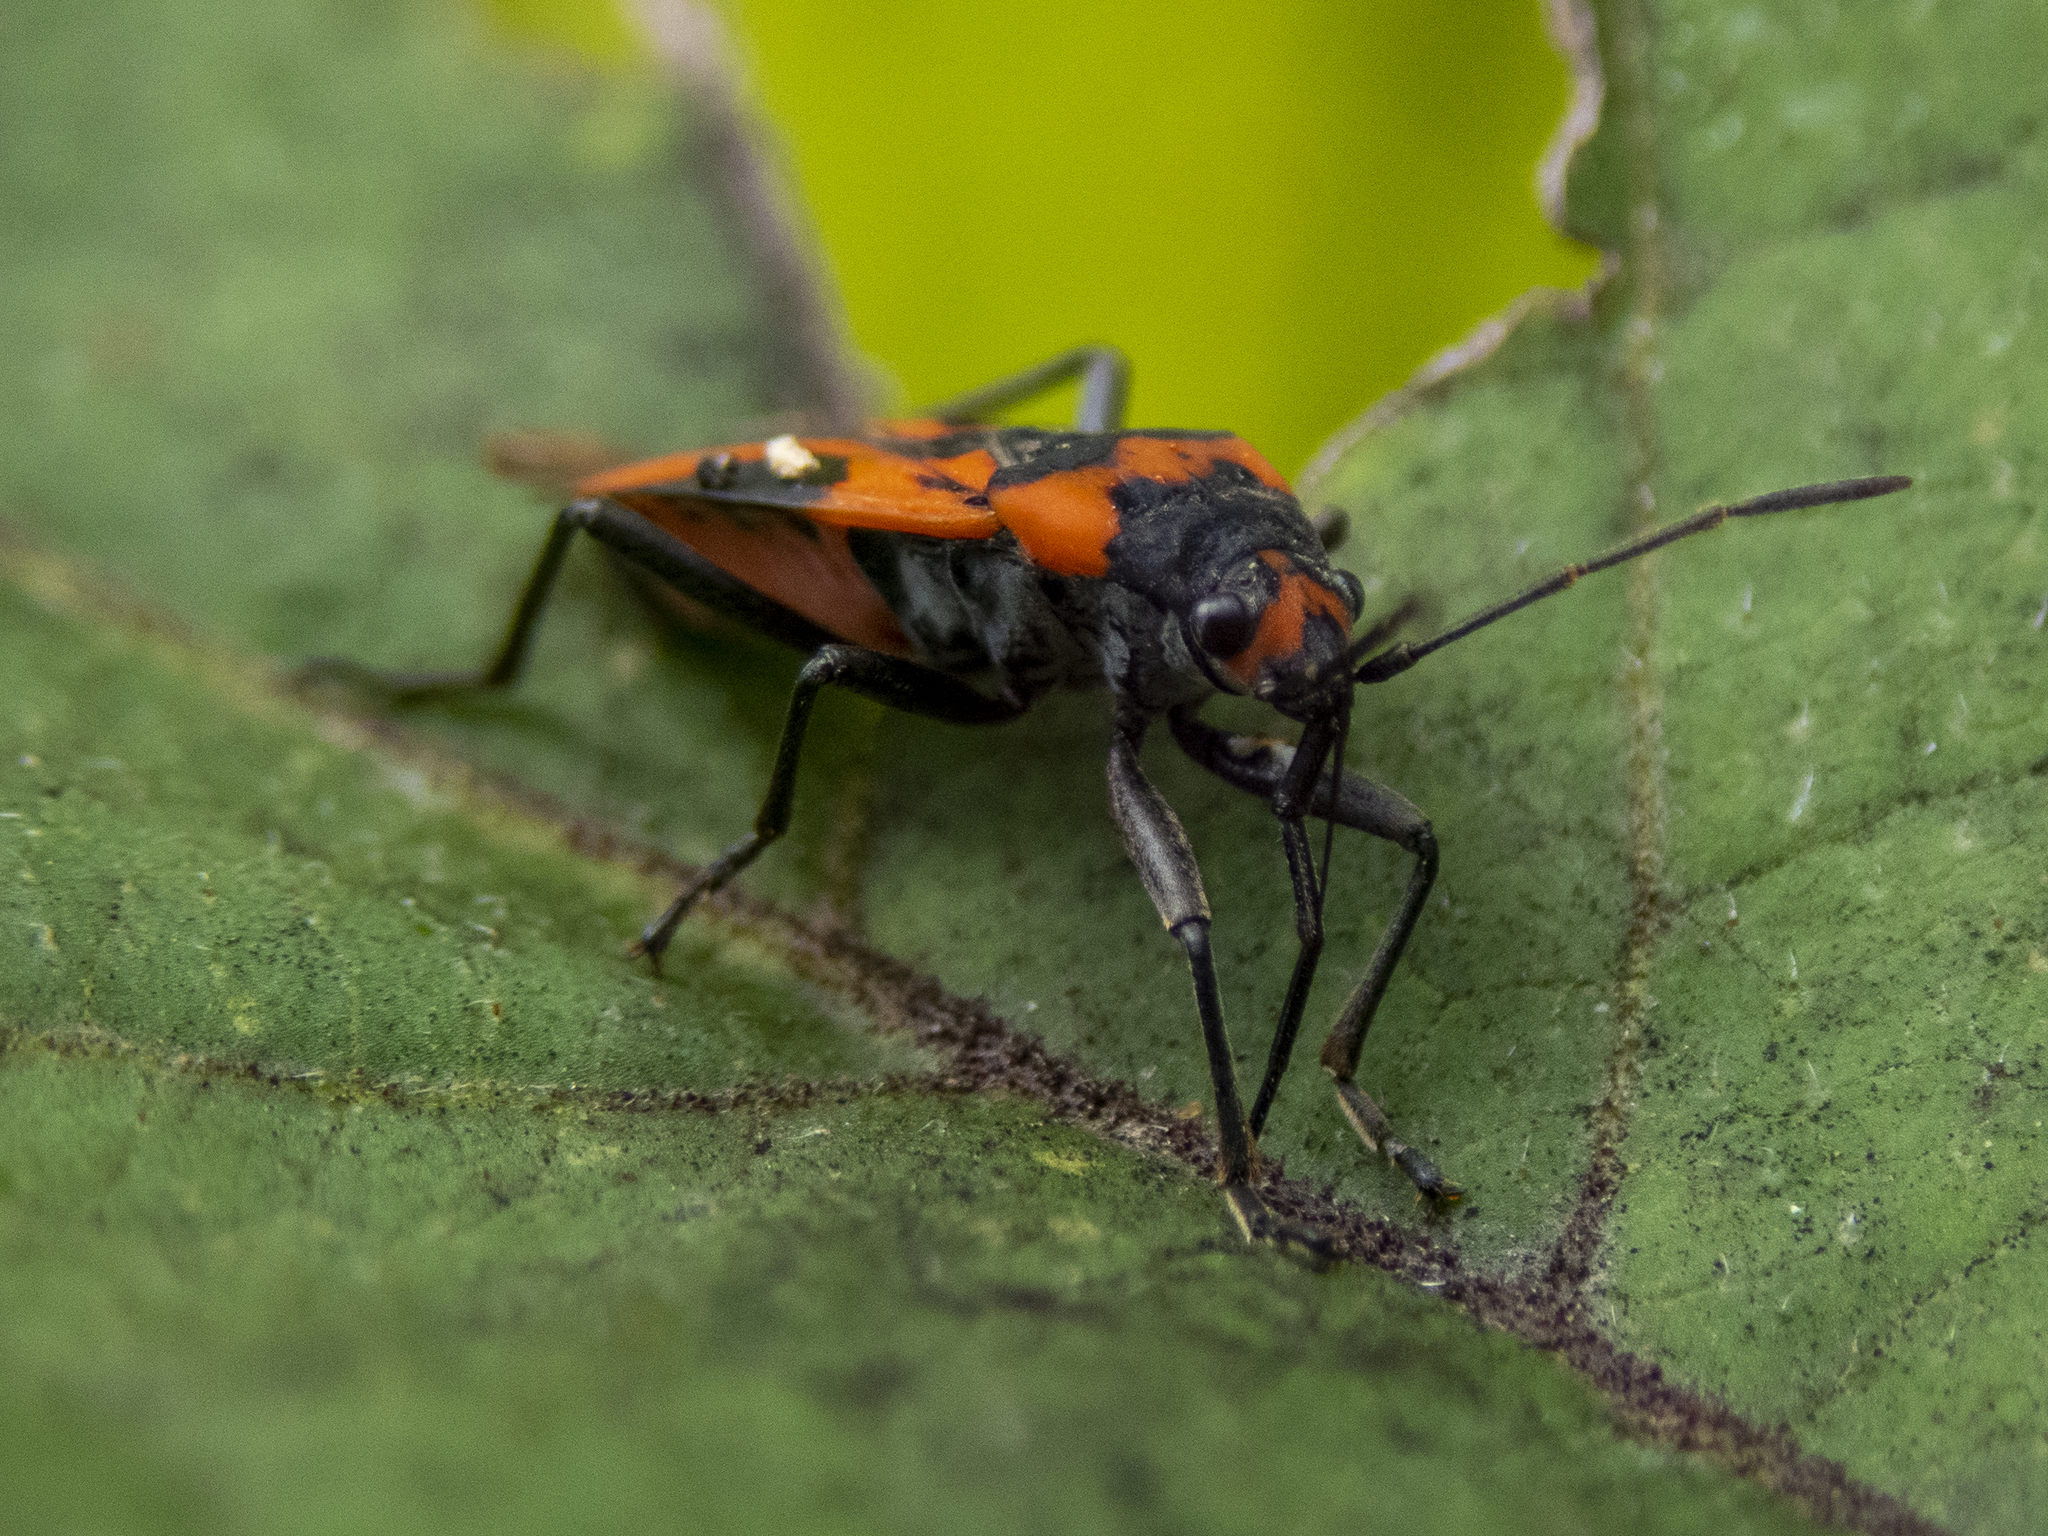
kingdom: Animalia
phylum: Arthropoda
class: Insecta
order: Hemiptera
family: Lygaeidae
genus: Lygaeus
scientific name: Lygaeus turcicus
